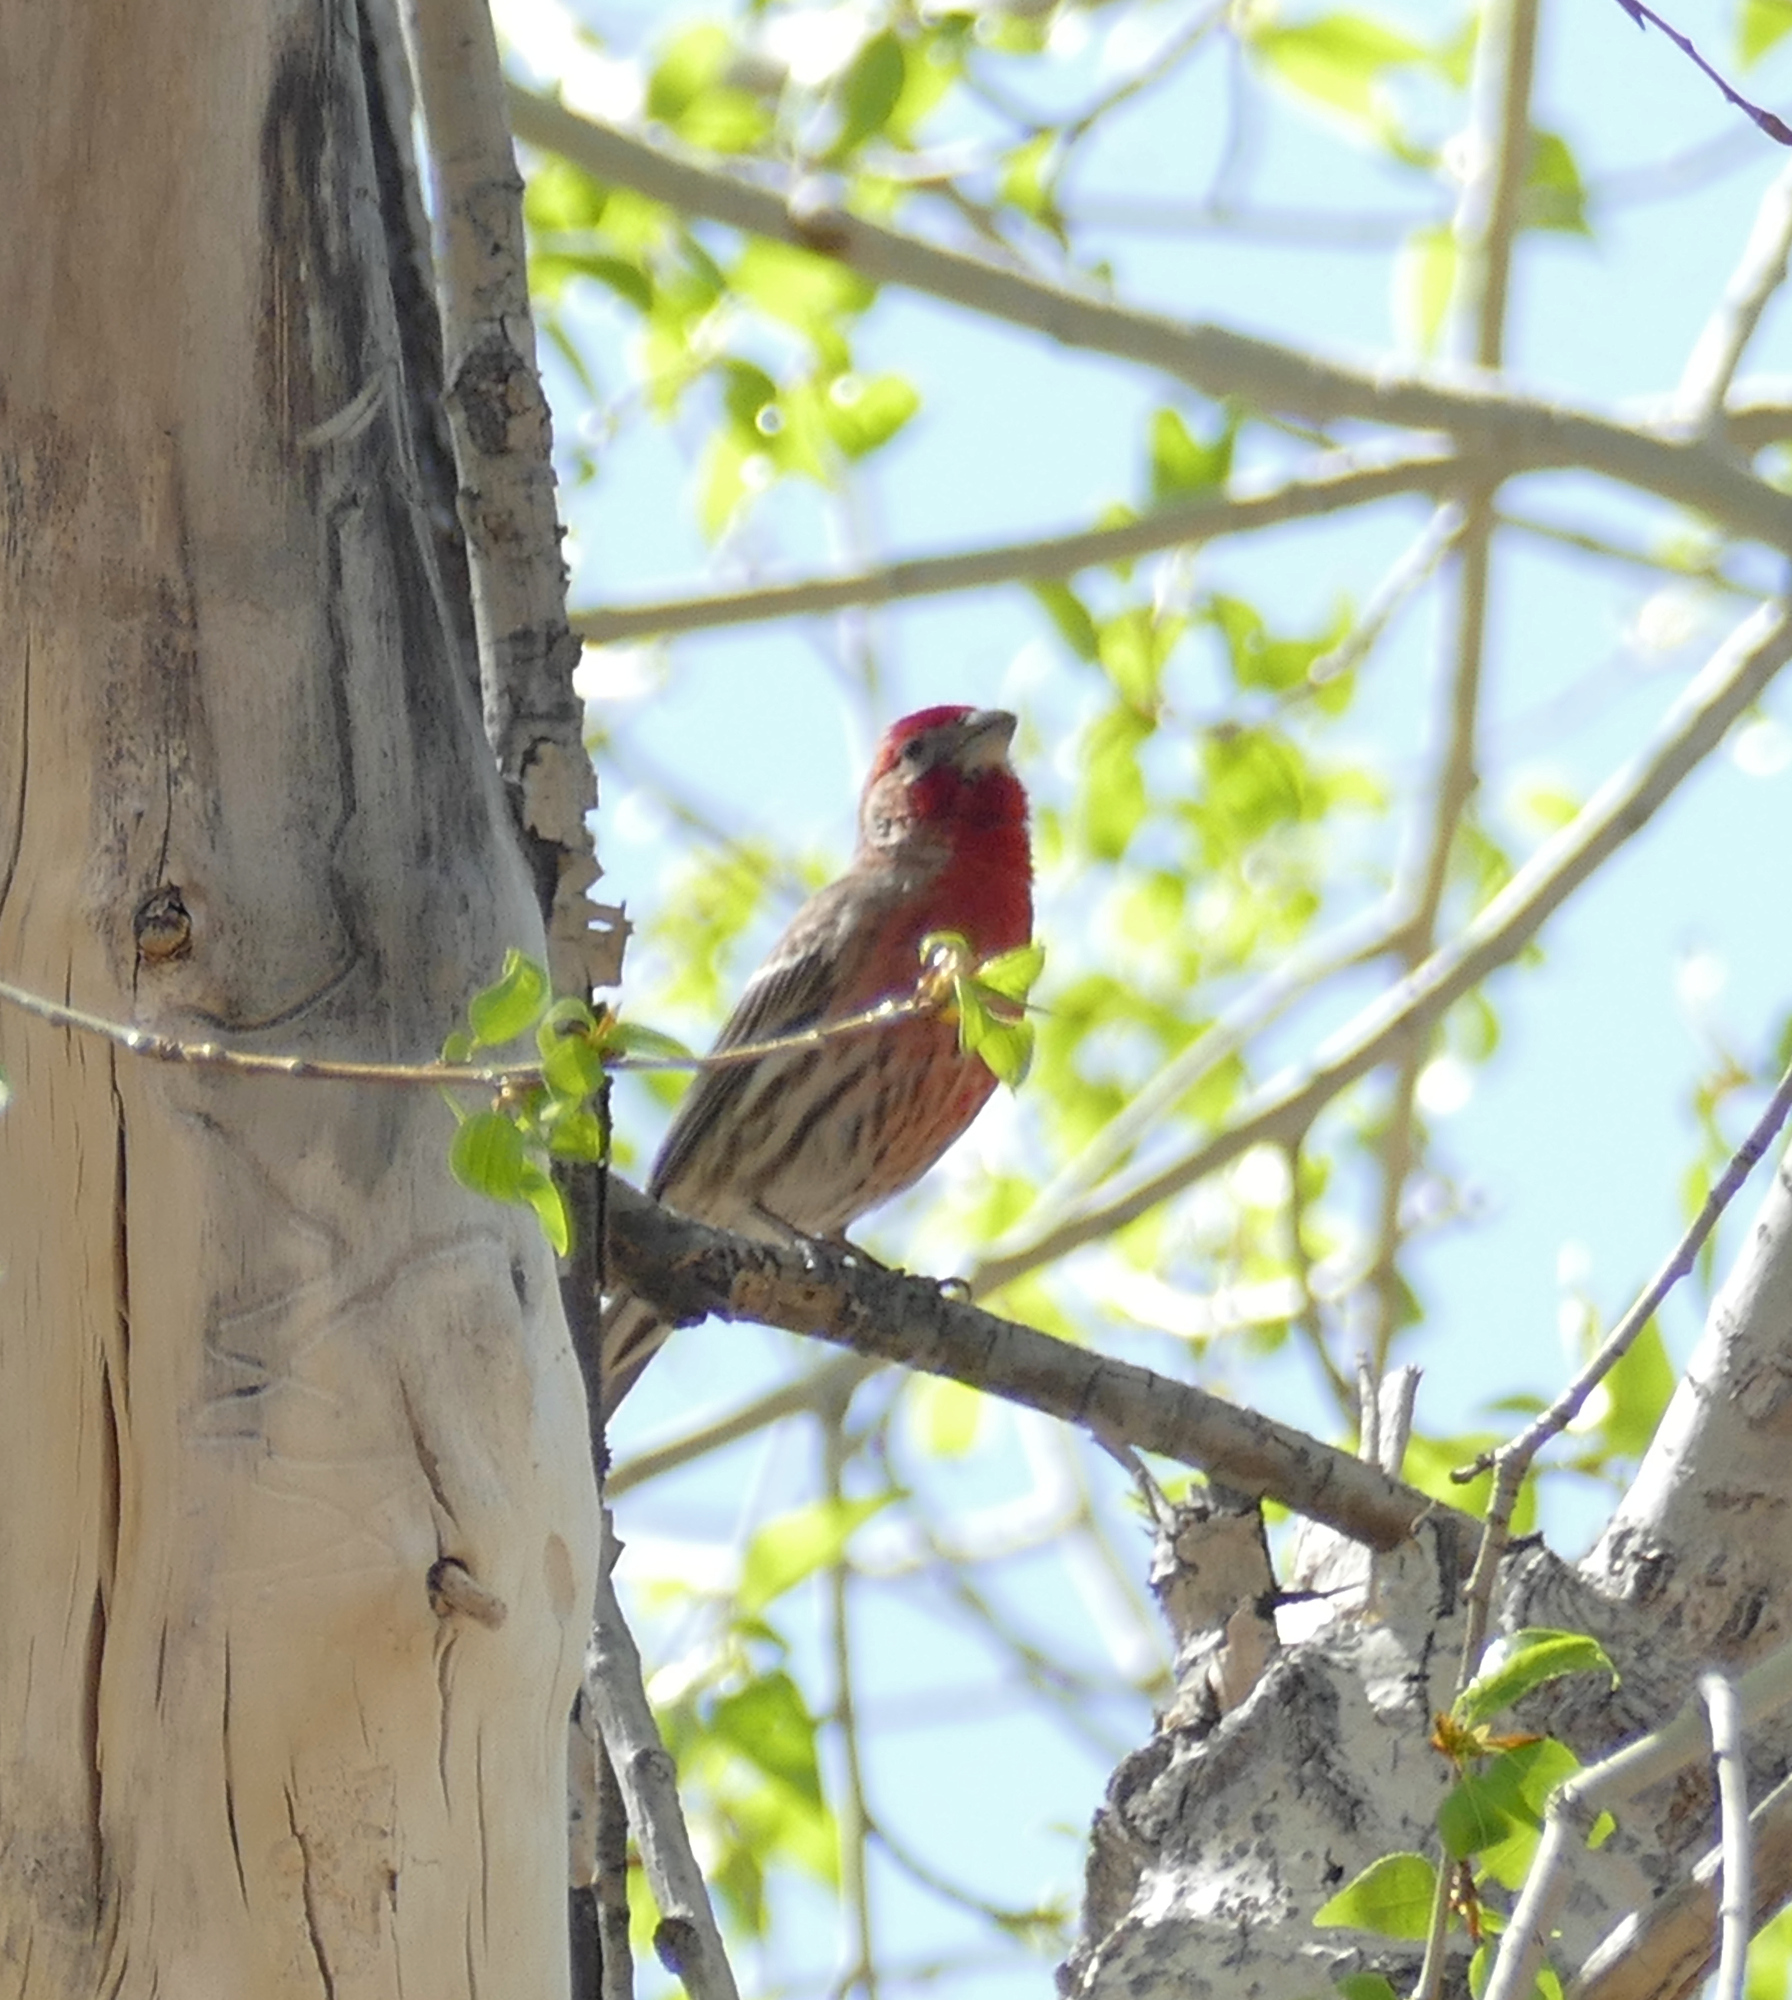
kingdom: Animalia
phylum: Chordata
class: Aves
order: Passeriformes
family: Fringillidae
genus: Haemorhous
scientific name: Haemorhous mexicanus
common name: House finch
